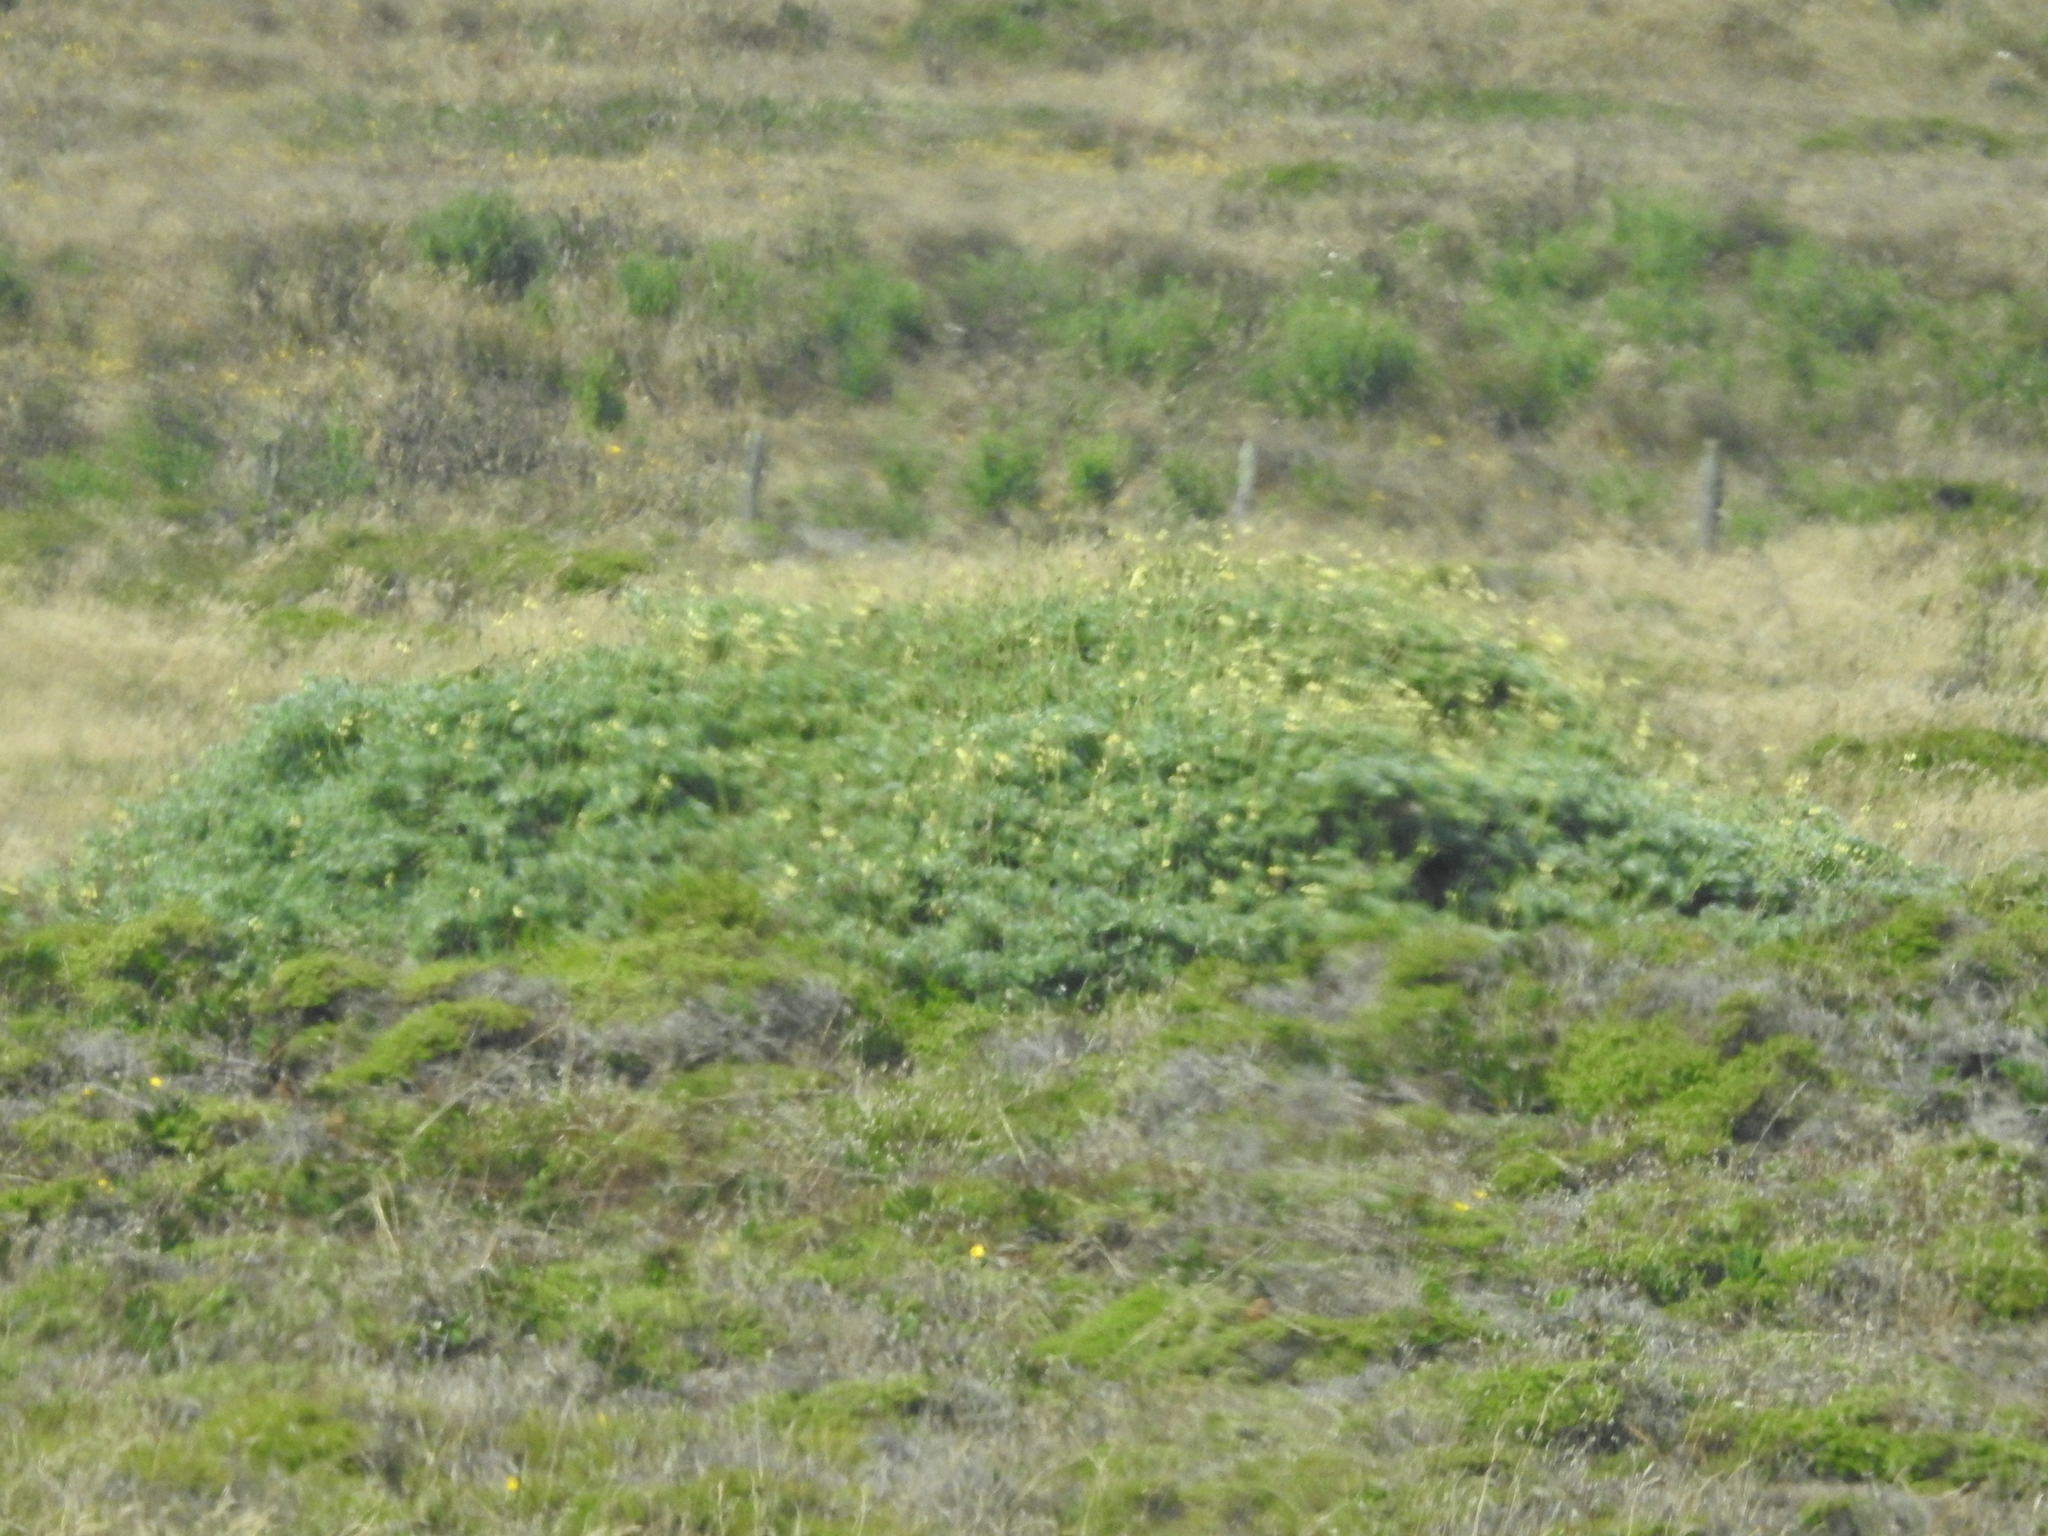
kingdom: Plantae
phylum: Tracheophyta
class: Magnoliopsida
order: Fabales
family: Fabaceae
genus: Lupinus
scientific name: Lupinus arboreus
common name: Yellow bush lupine
